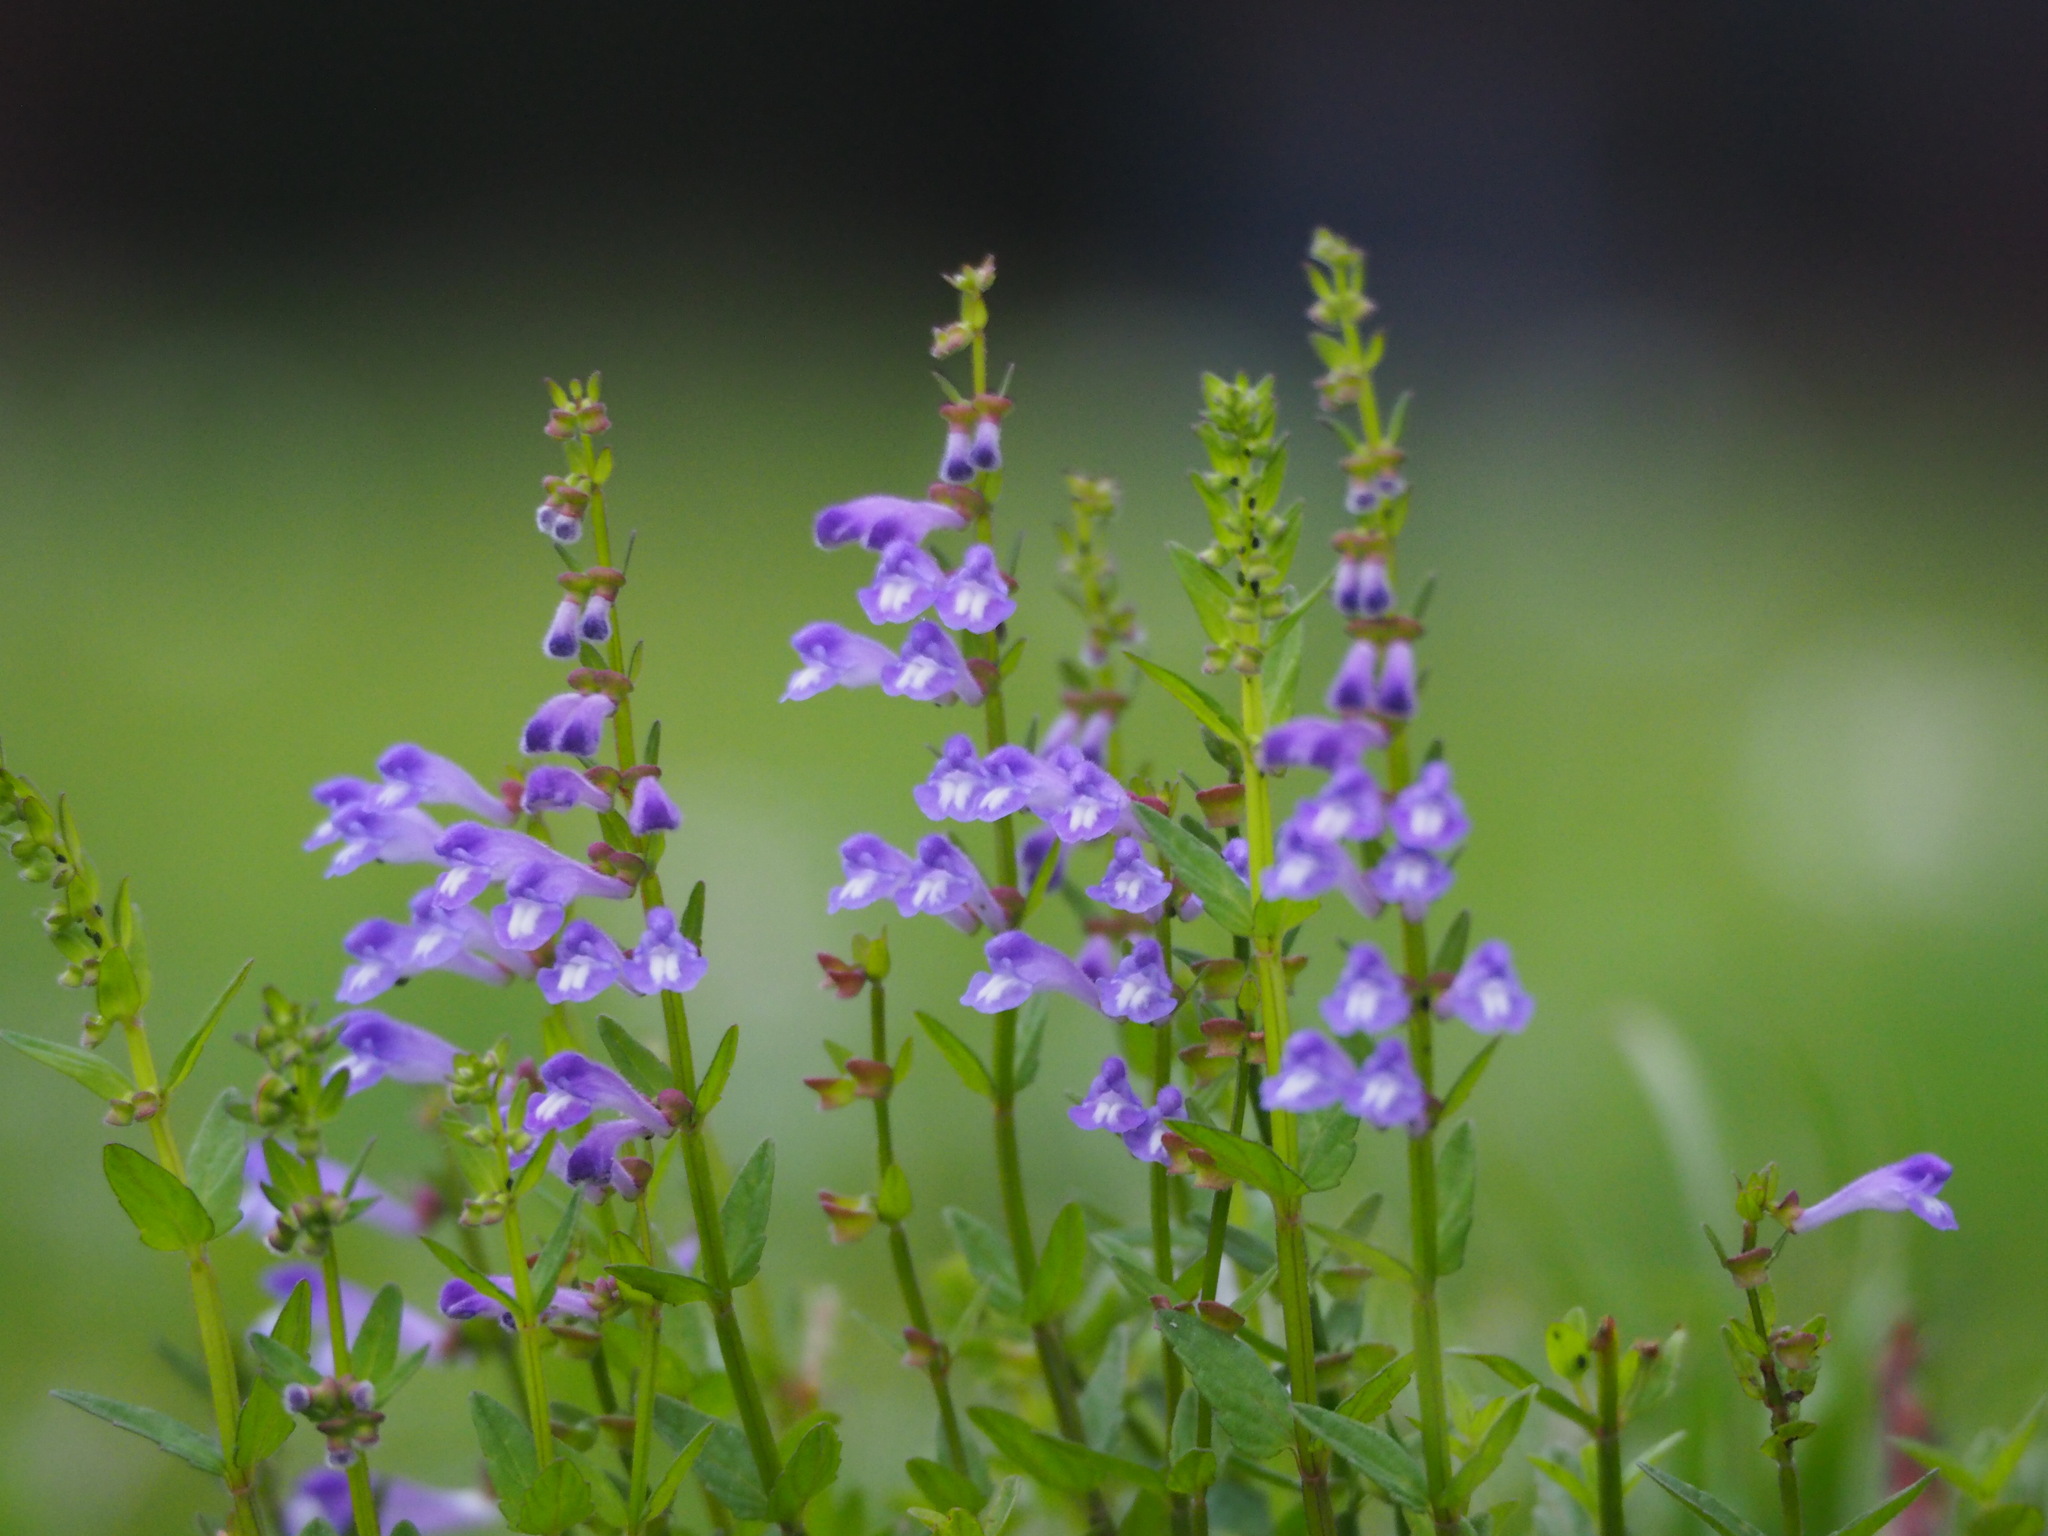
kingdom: Plantae
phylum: Tracheophyta
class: Magnoliopsida
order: Lamiales
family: Lamiaceae
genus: Scutellaria
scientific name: Scutellaria barbata
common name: Barbed skullcap
